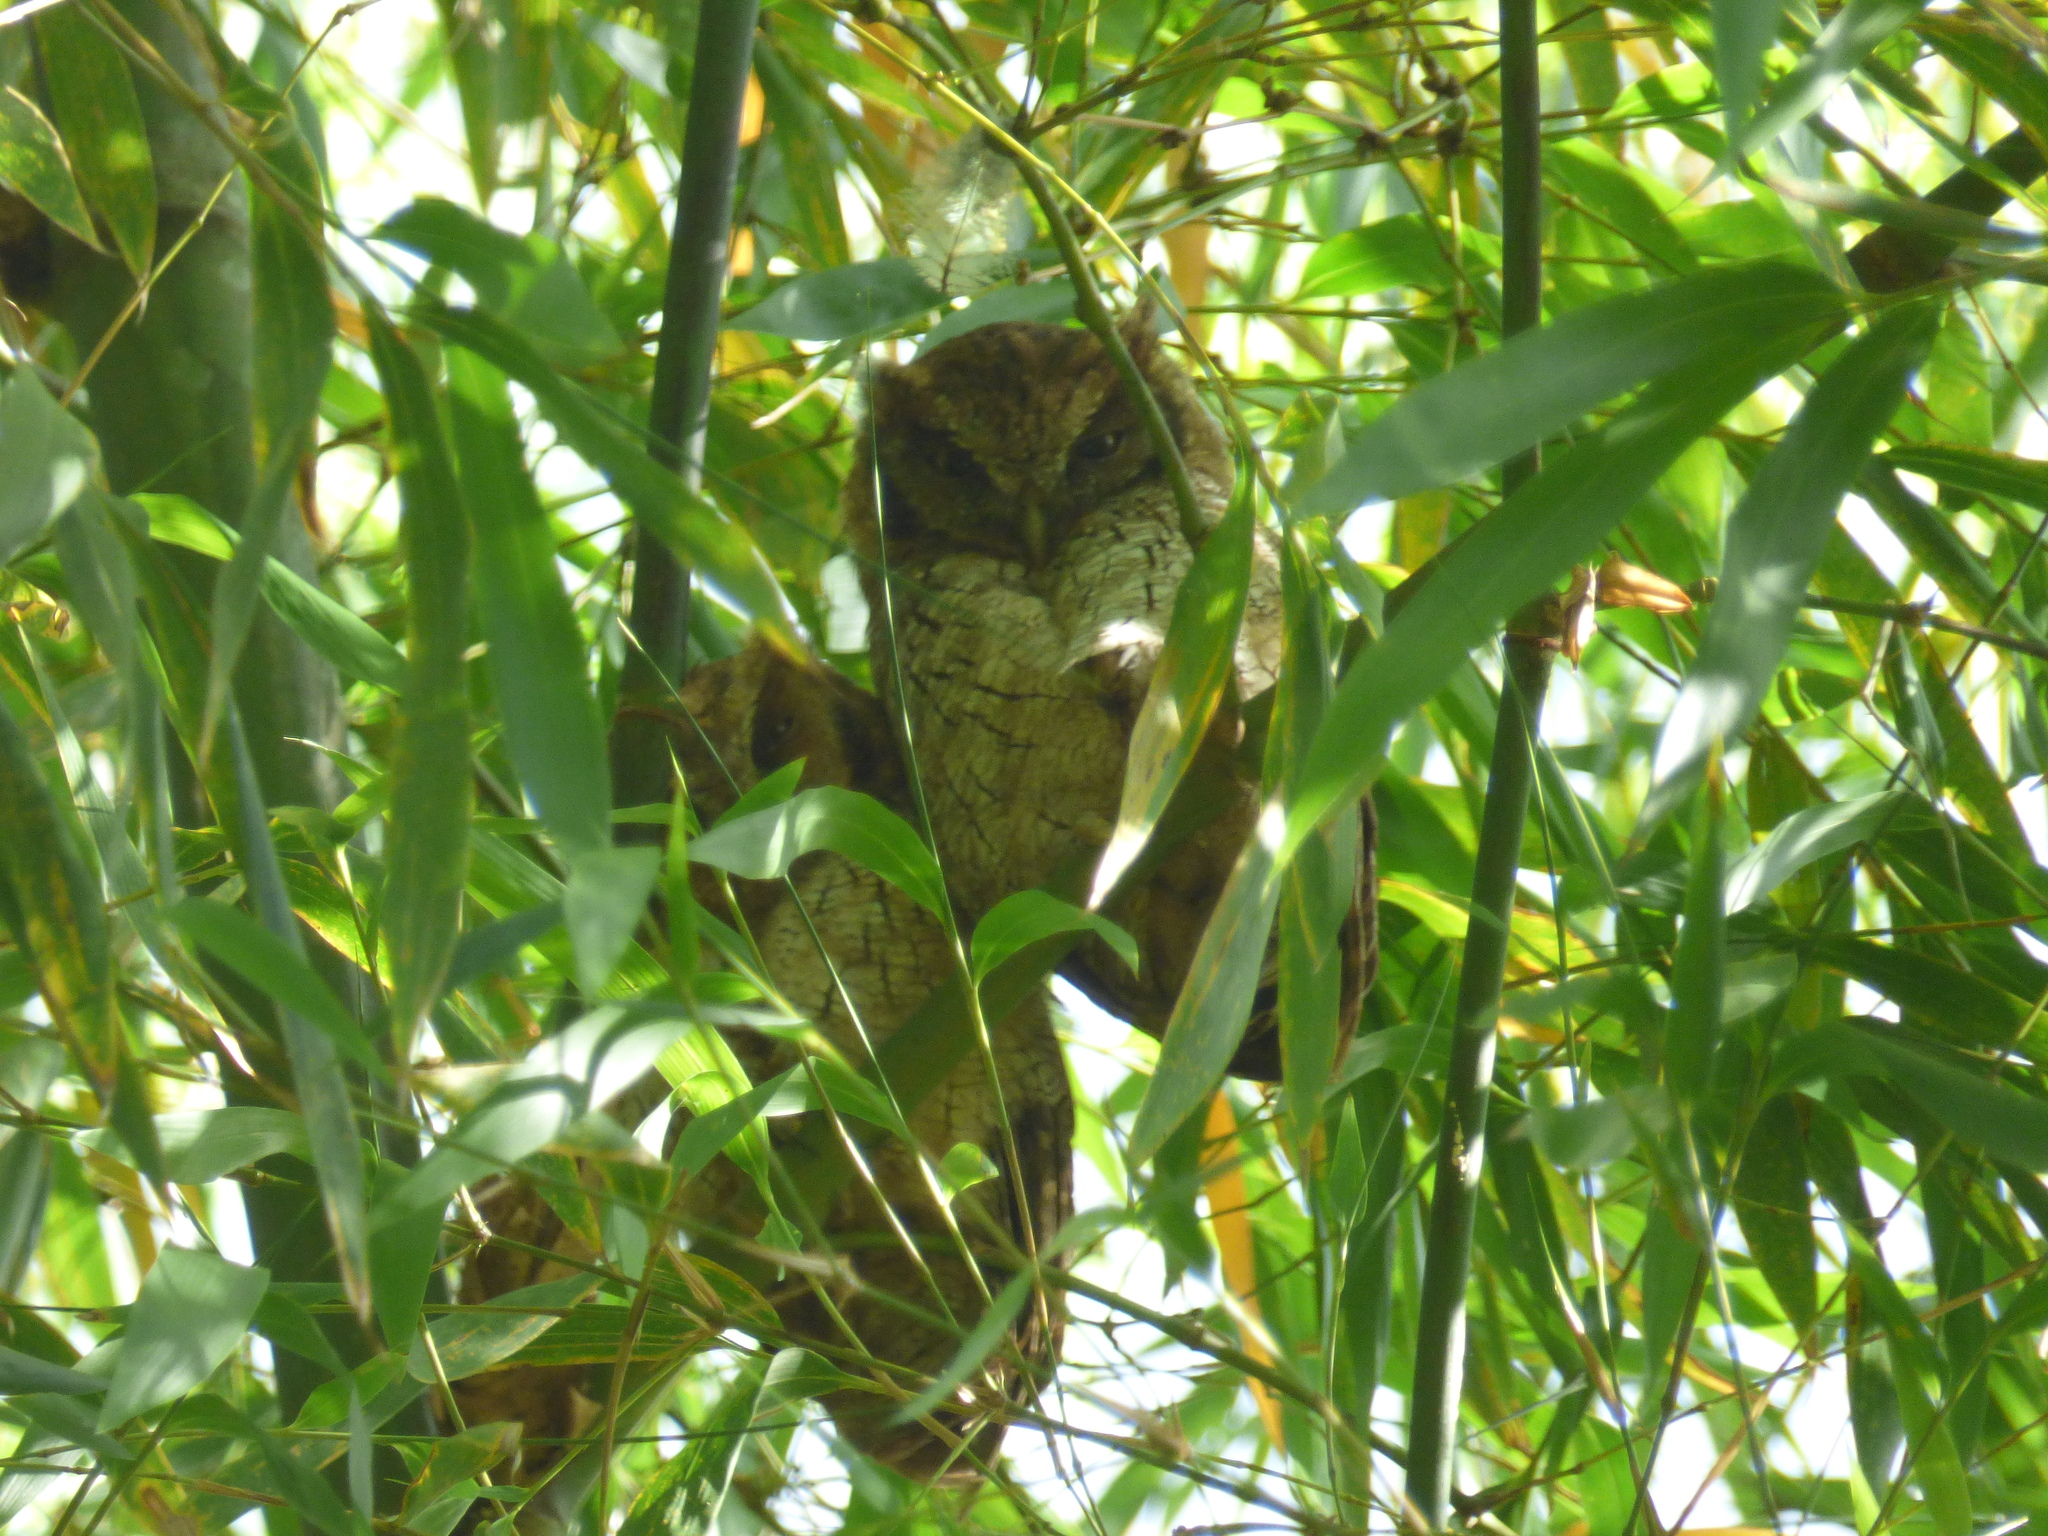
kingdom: Animalia
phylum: Chordata
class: Aves
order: Strigiformes
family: Strigidae
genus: Megascops
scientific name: Megascops choliba
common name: Tropical screech-owl
